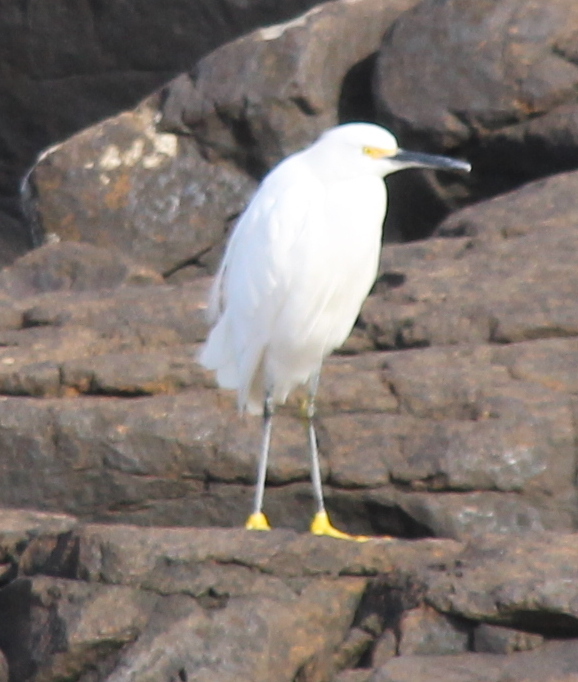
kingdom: Animalia
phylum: Chordata
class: Aves
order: Pelecaniformes
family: Ardeidae
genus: Egretta
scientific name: Egretta thula
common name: Snowy egret
